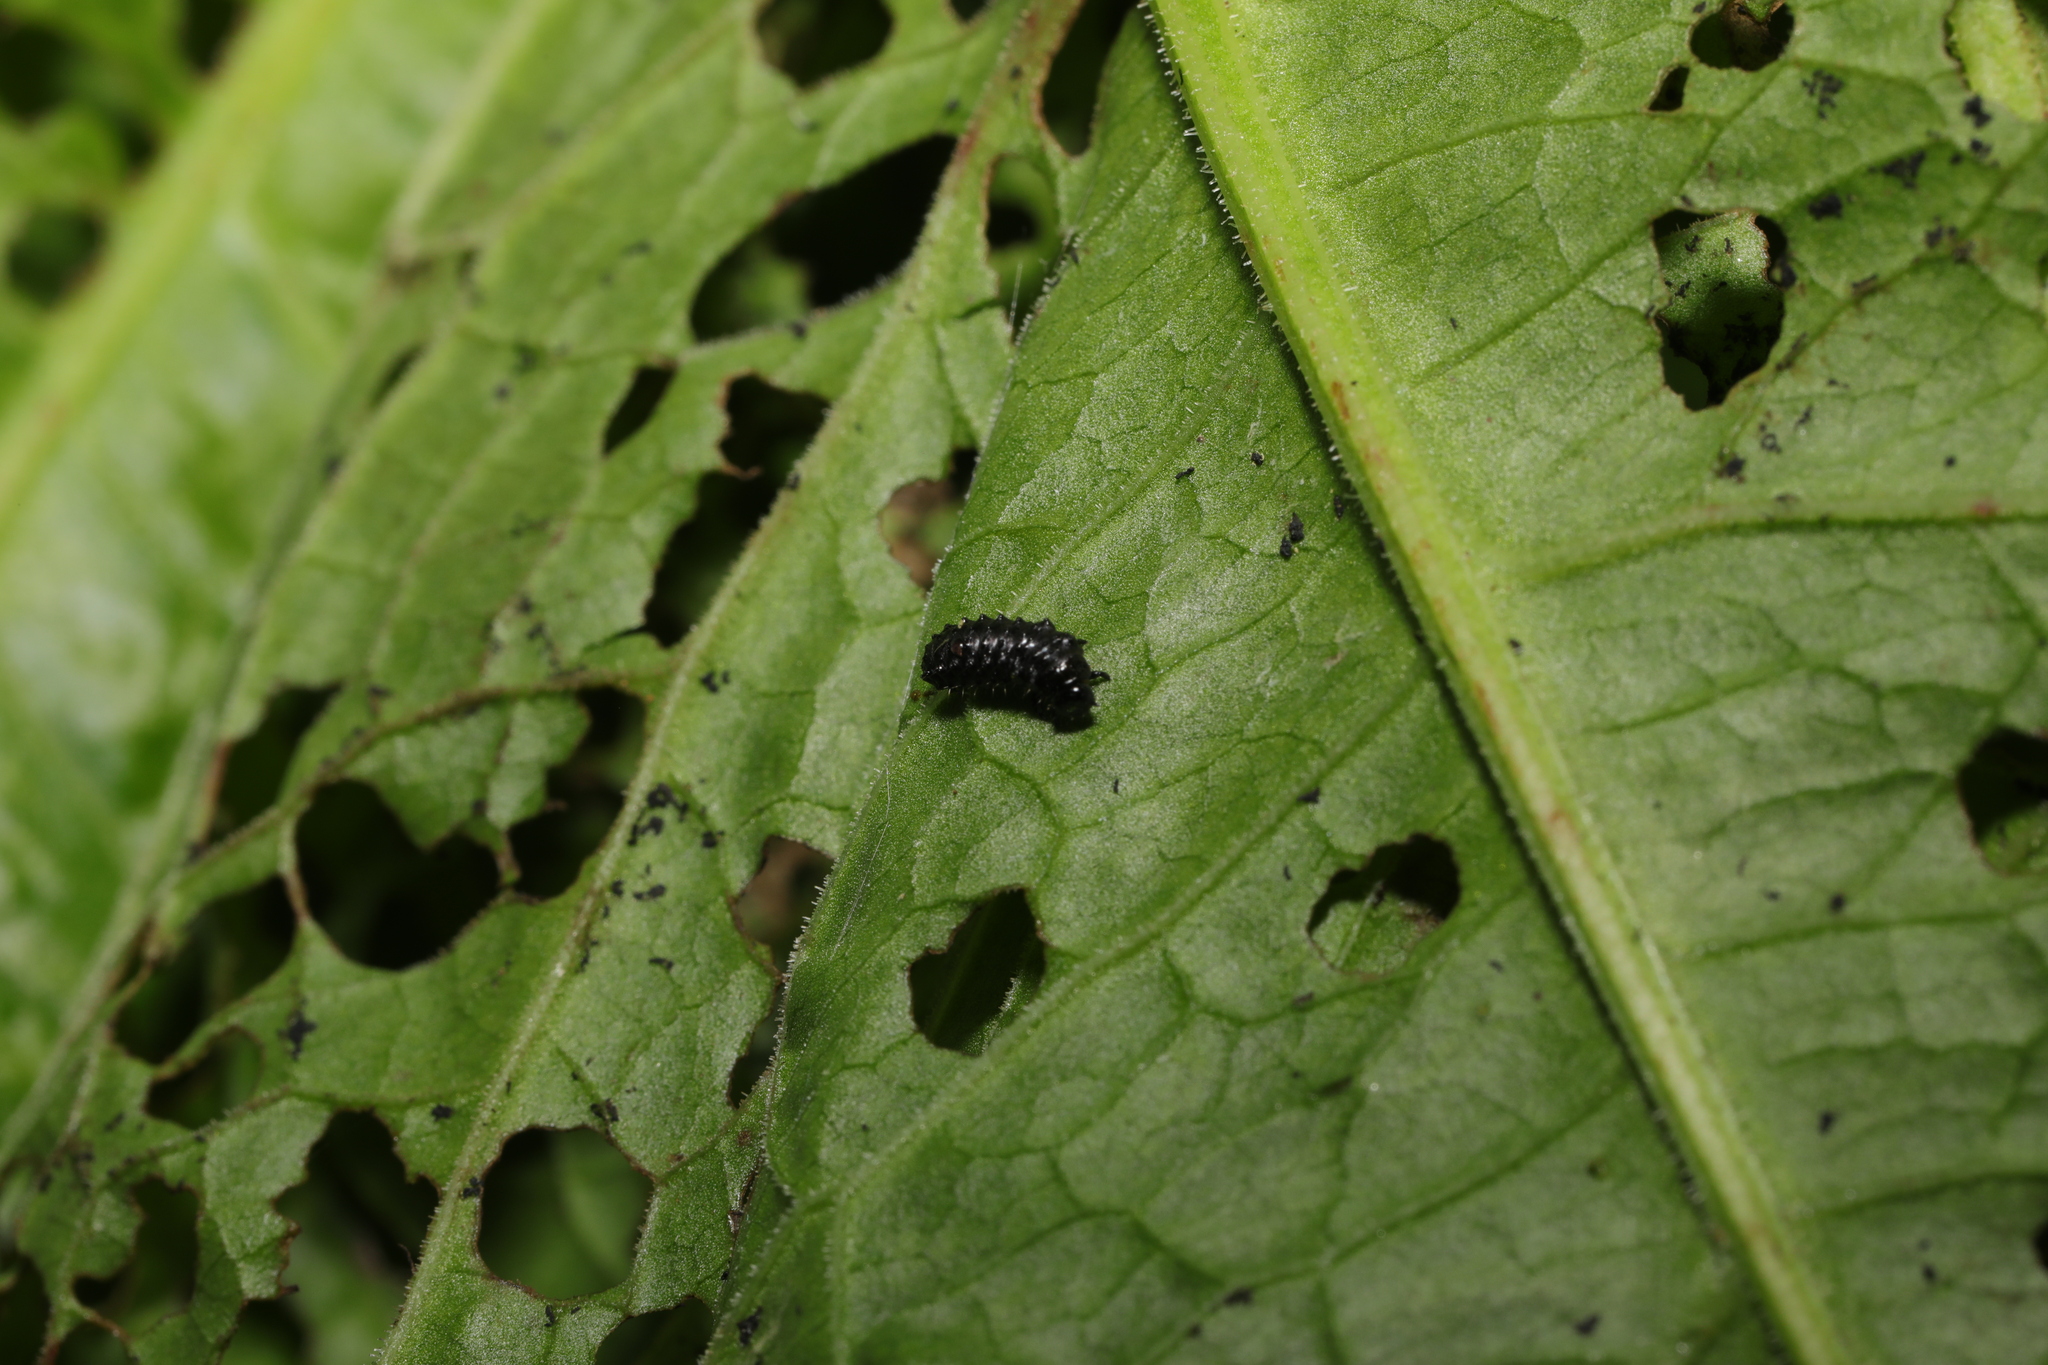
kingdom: Animalia
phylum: Arthropoda
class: Insecta
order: Coleoptera
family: Chrysomelidae
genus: Gastrophysa
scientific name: Gastrophysa viridula
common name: Green dock beetle
